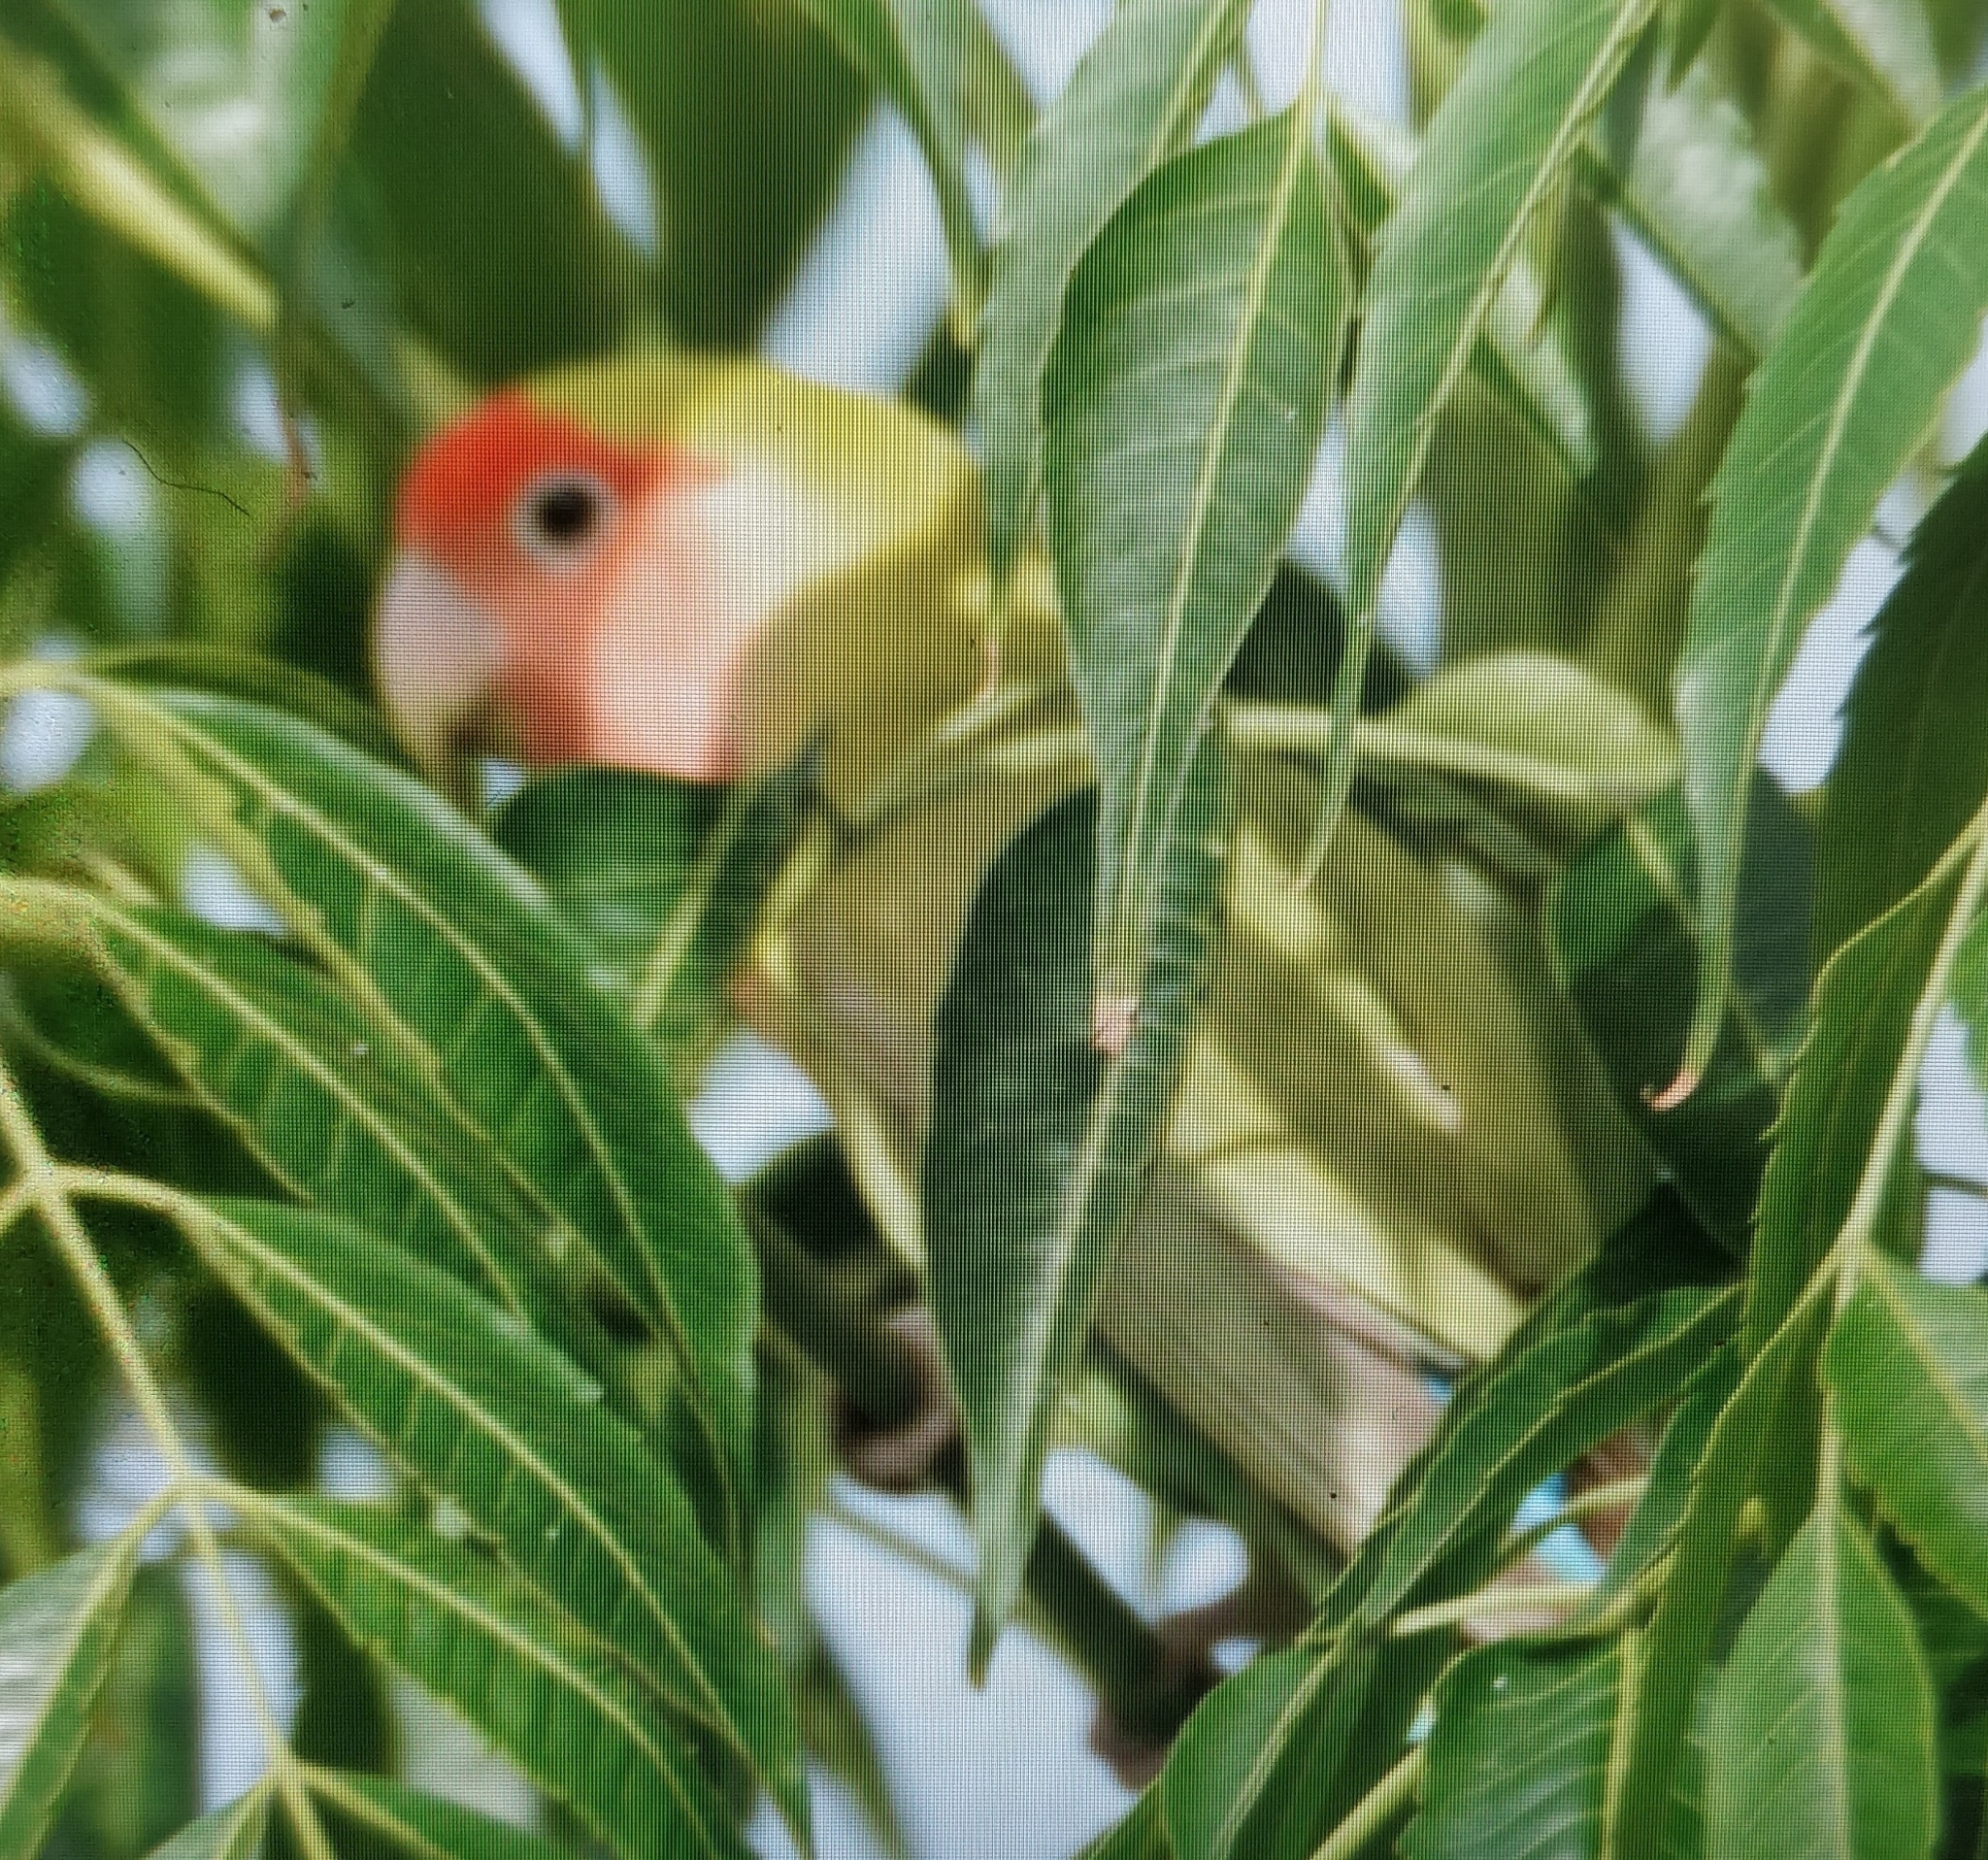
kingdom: Animalia
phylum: Chordata
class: Aves
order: Psittaciformes
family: Psittacidae
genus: Agapornis
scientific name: Agapornis roseicollis
